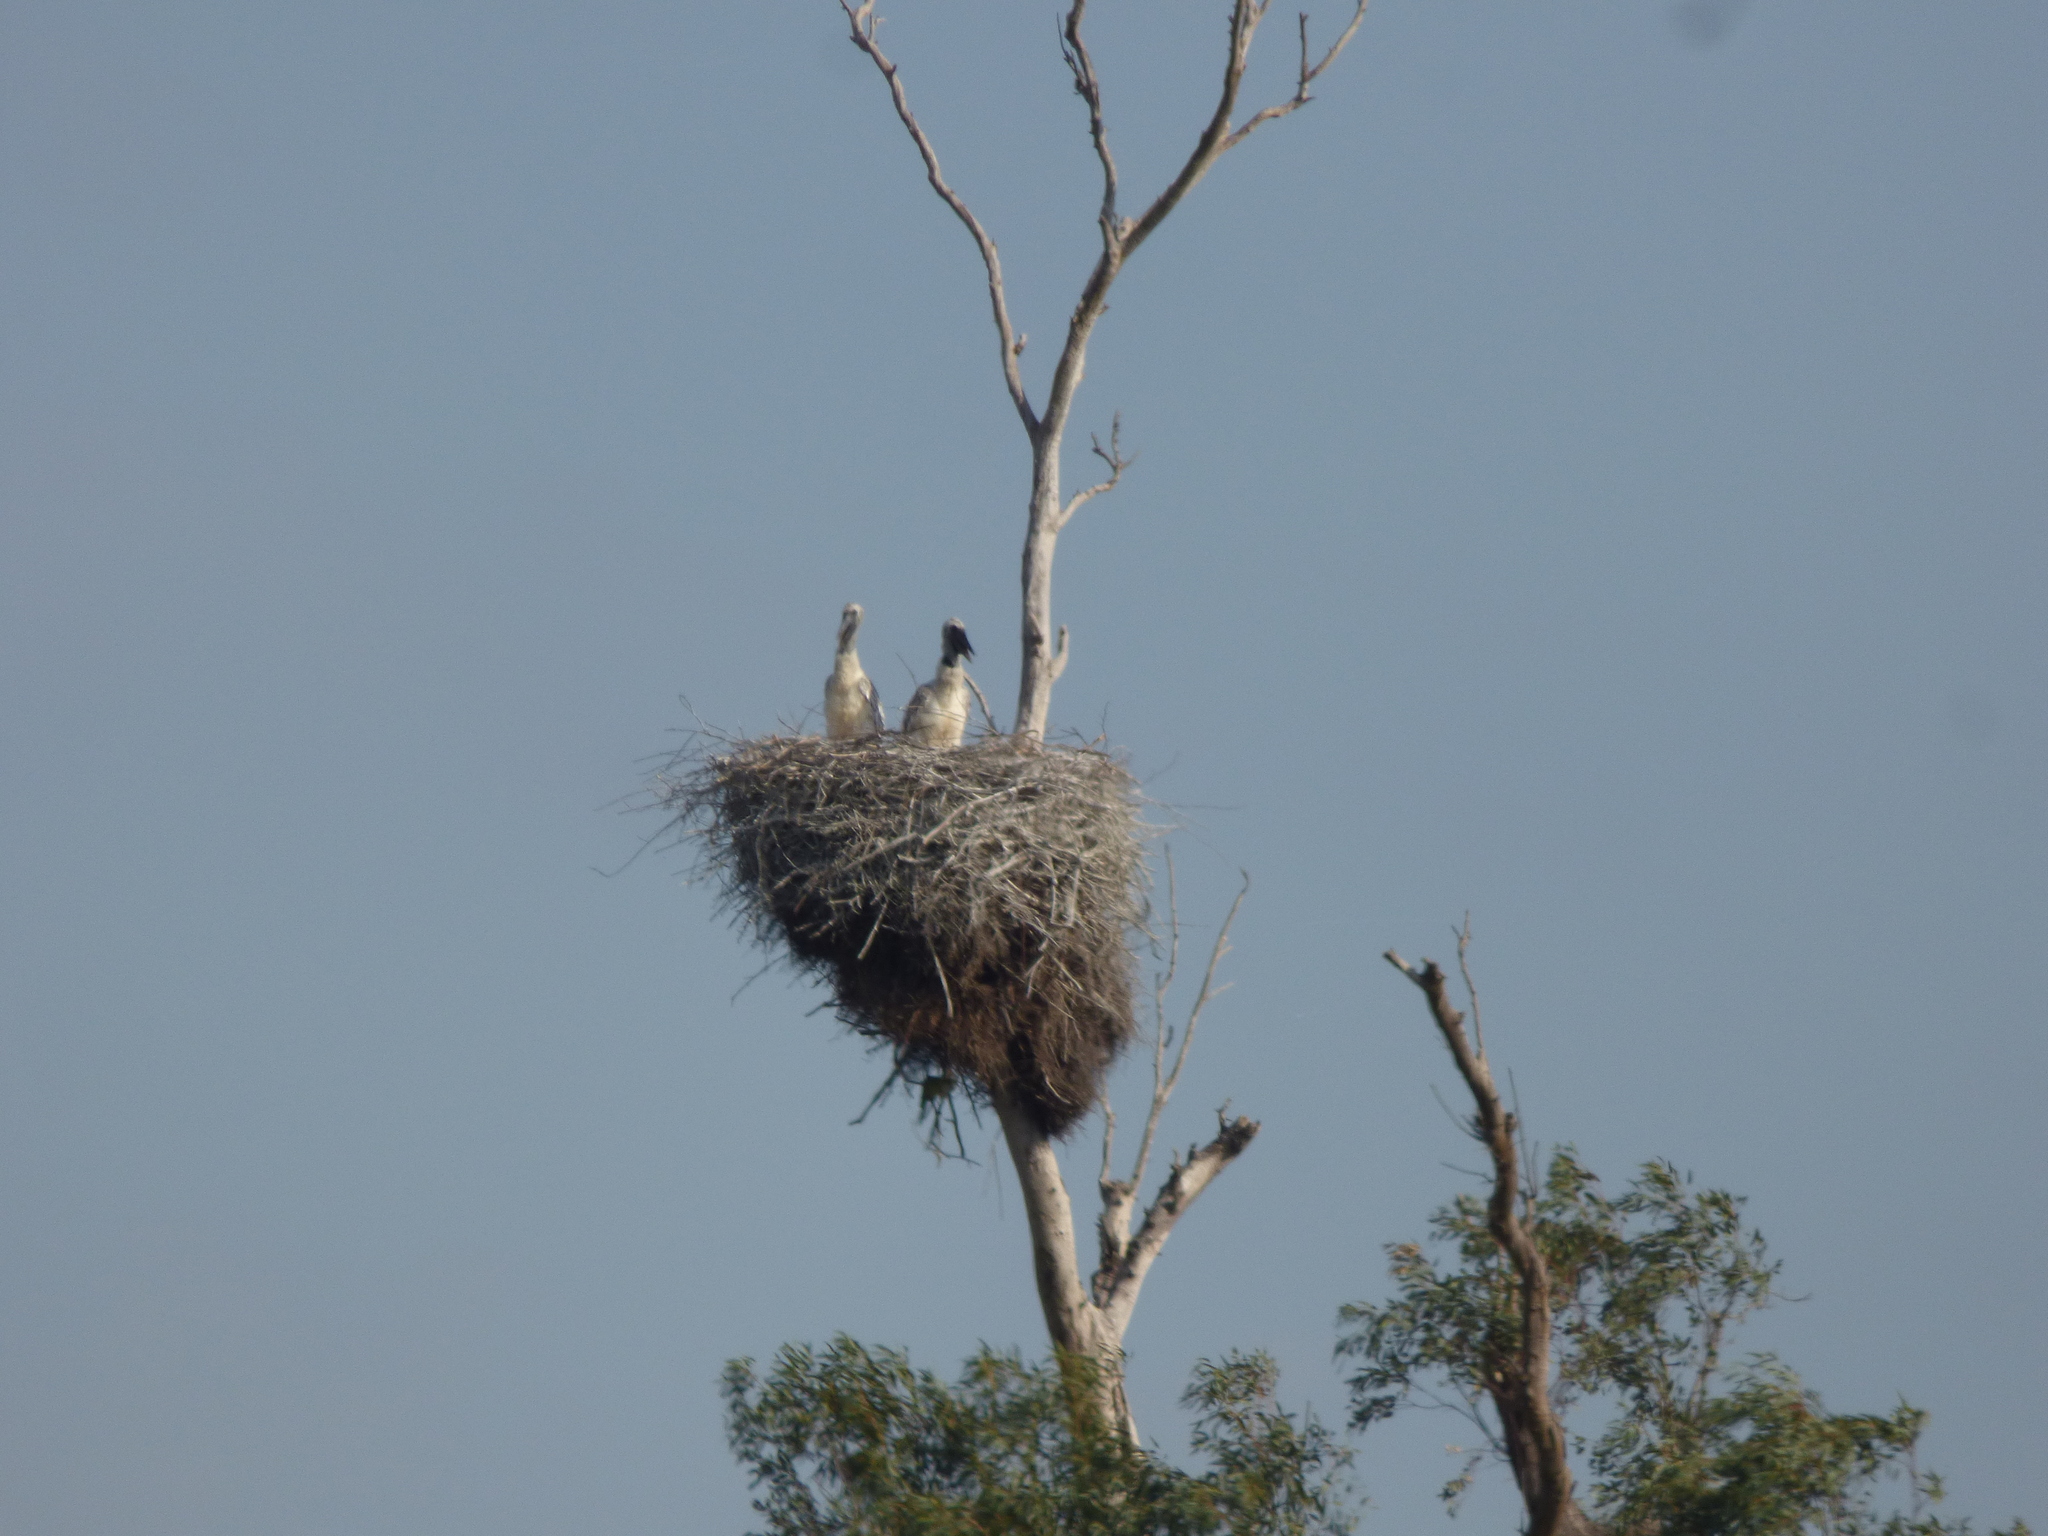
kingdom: Animalia
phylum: Chordata
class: Aves
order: Ciconiiformes
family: Ciconiidae
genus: Jabiru
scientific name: Jabiru mycteria
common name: Jabiru
